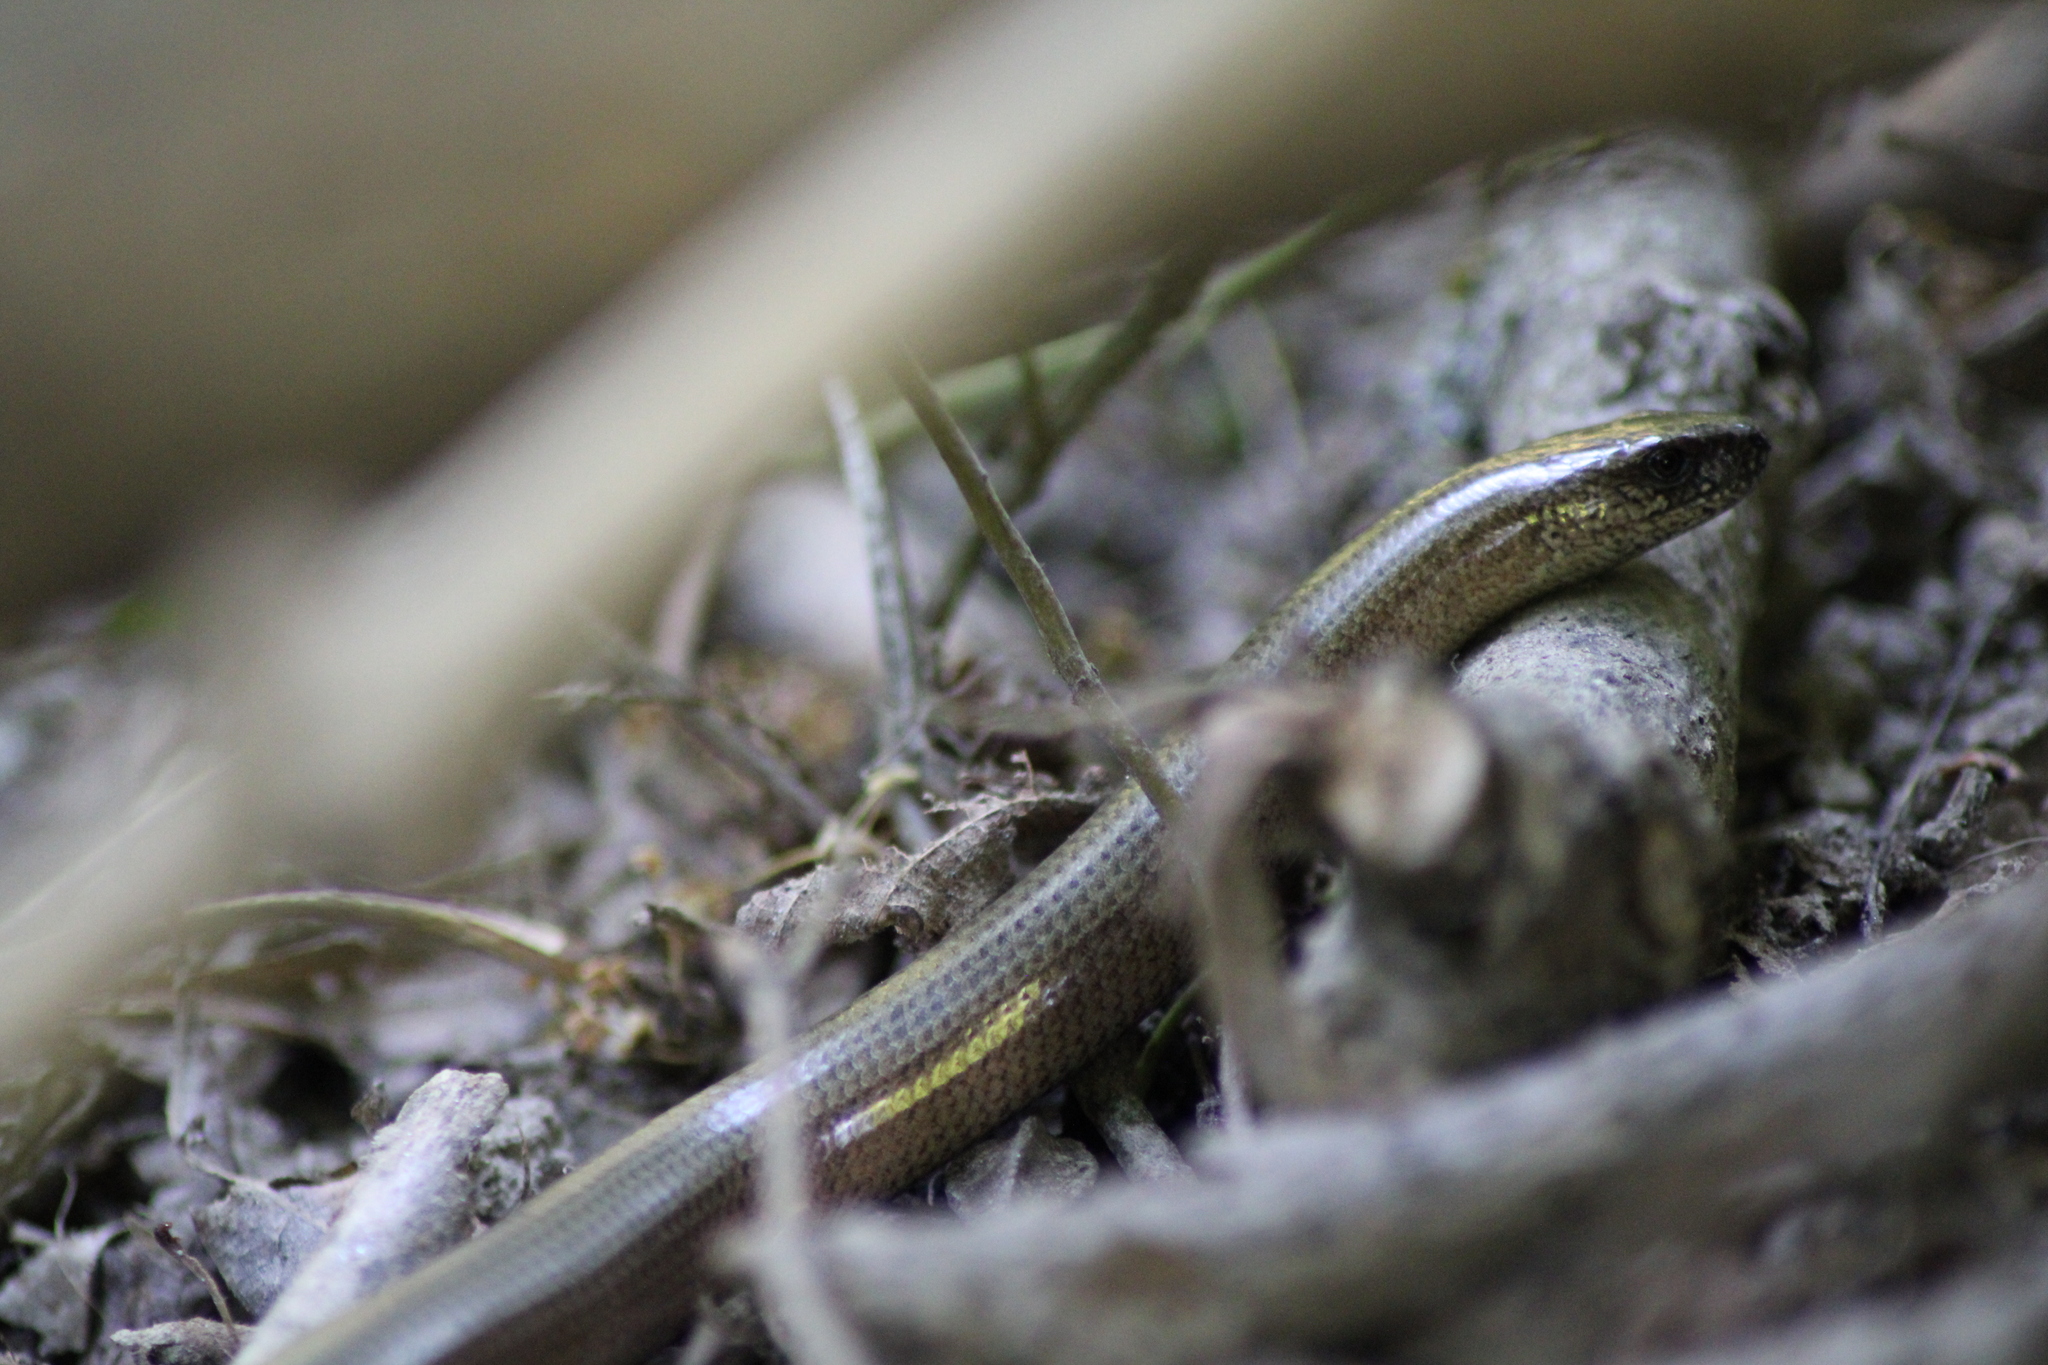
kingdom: Animalia
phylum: Chordata
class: Squamata
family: Anguidae
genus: Anguis
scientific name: Anguis fragilis
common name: Slow worm
